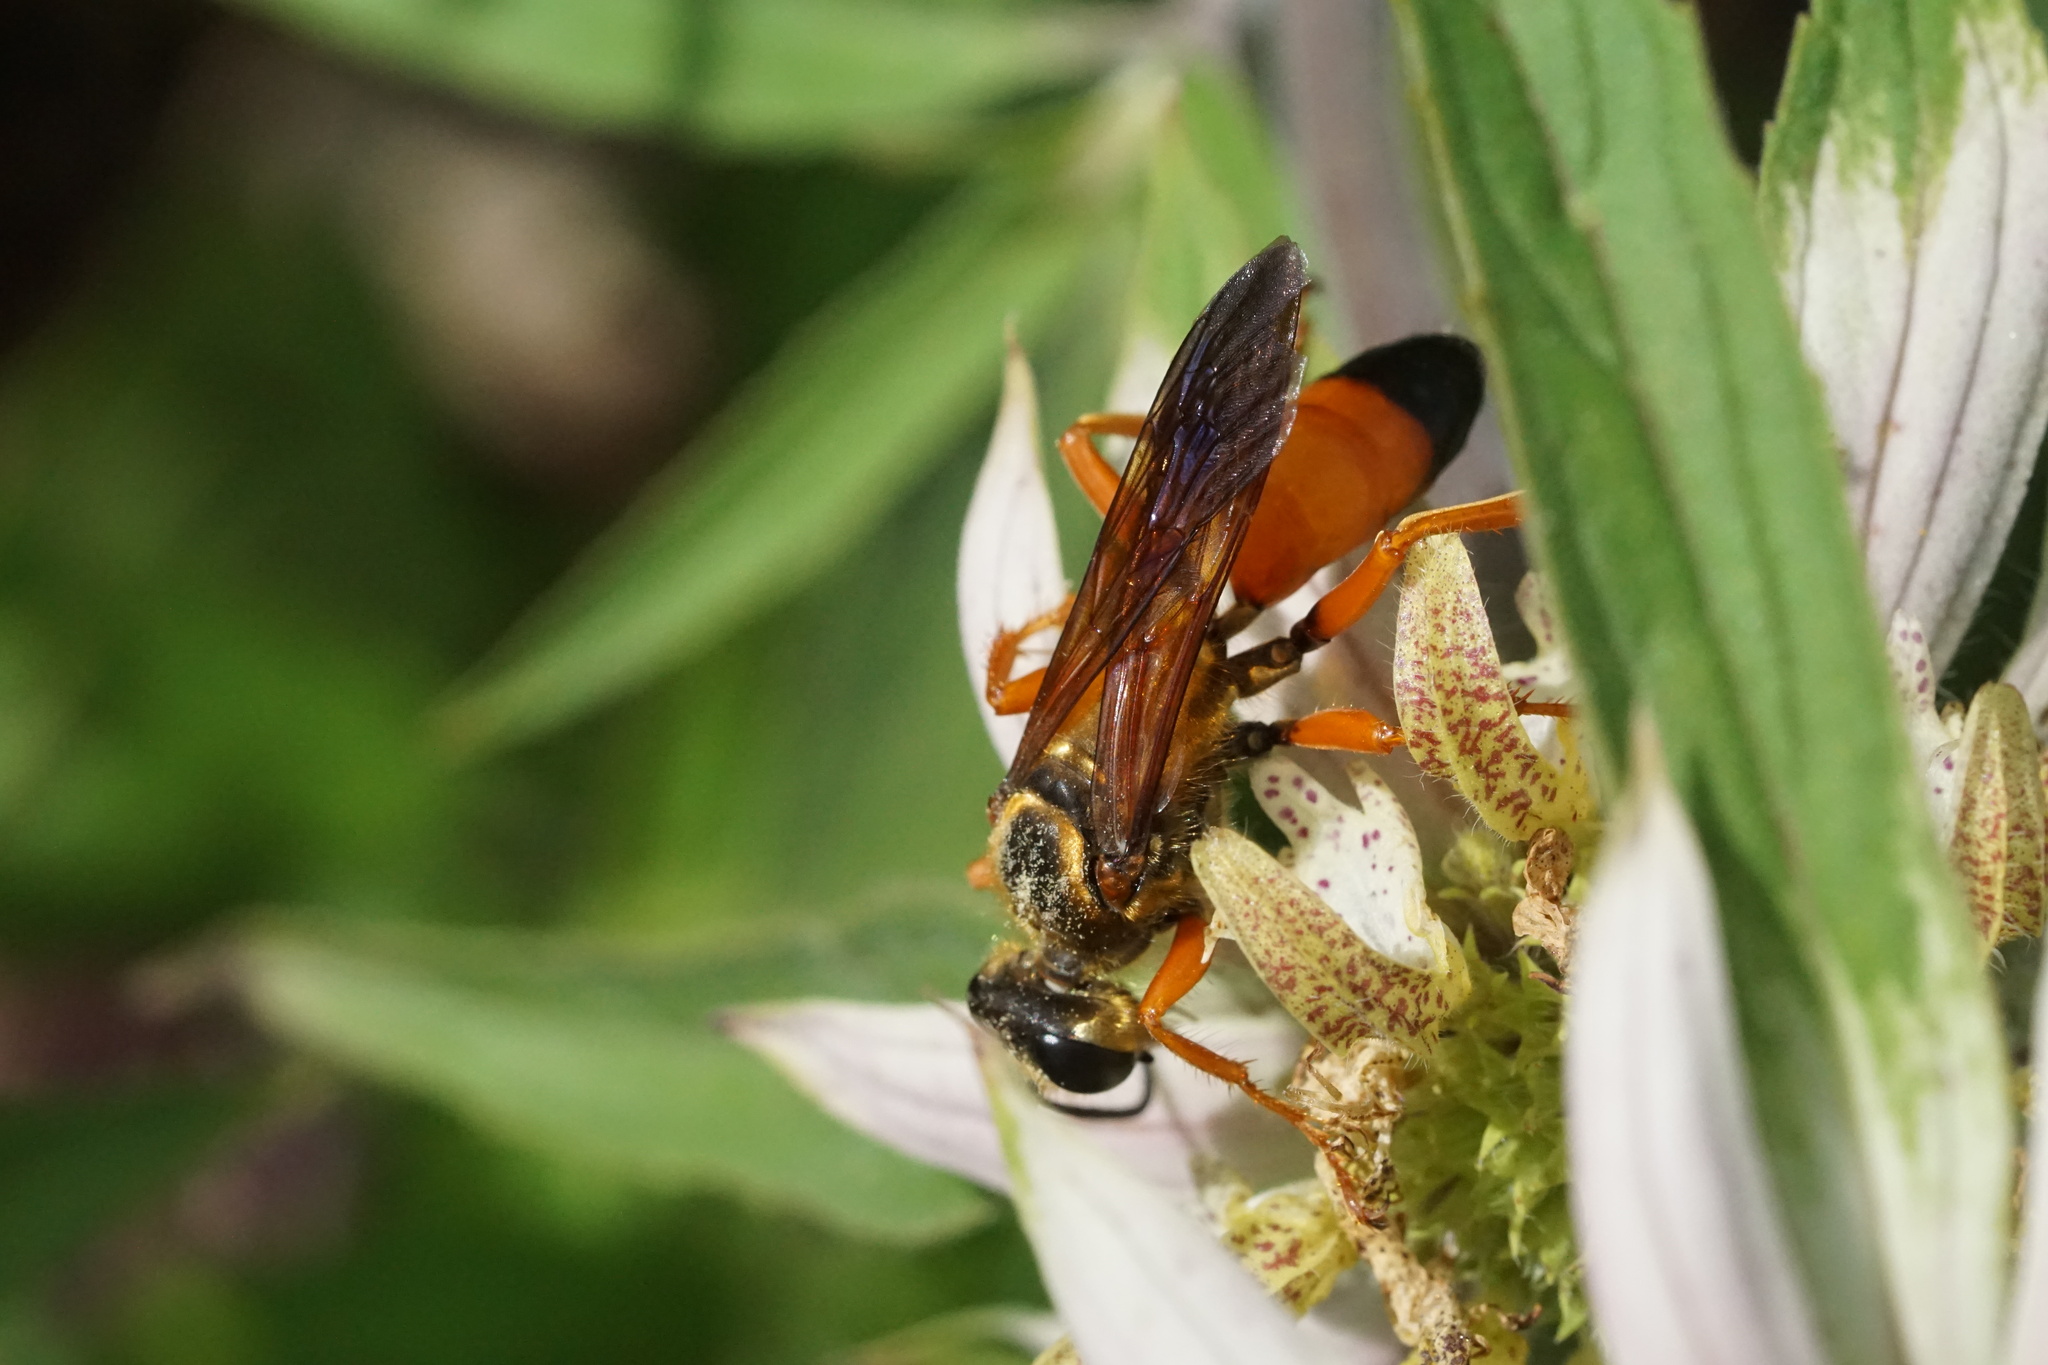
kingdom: Animalia
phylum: Arthropoda
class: Insecta
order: Hymenoptera
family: Sphecidae
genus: Sphex
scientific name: Sphex ichneumoneus
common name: Great golden digger wasp
